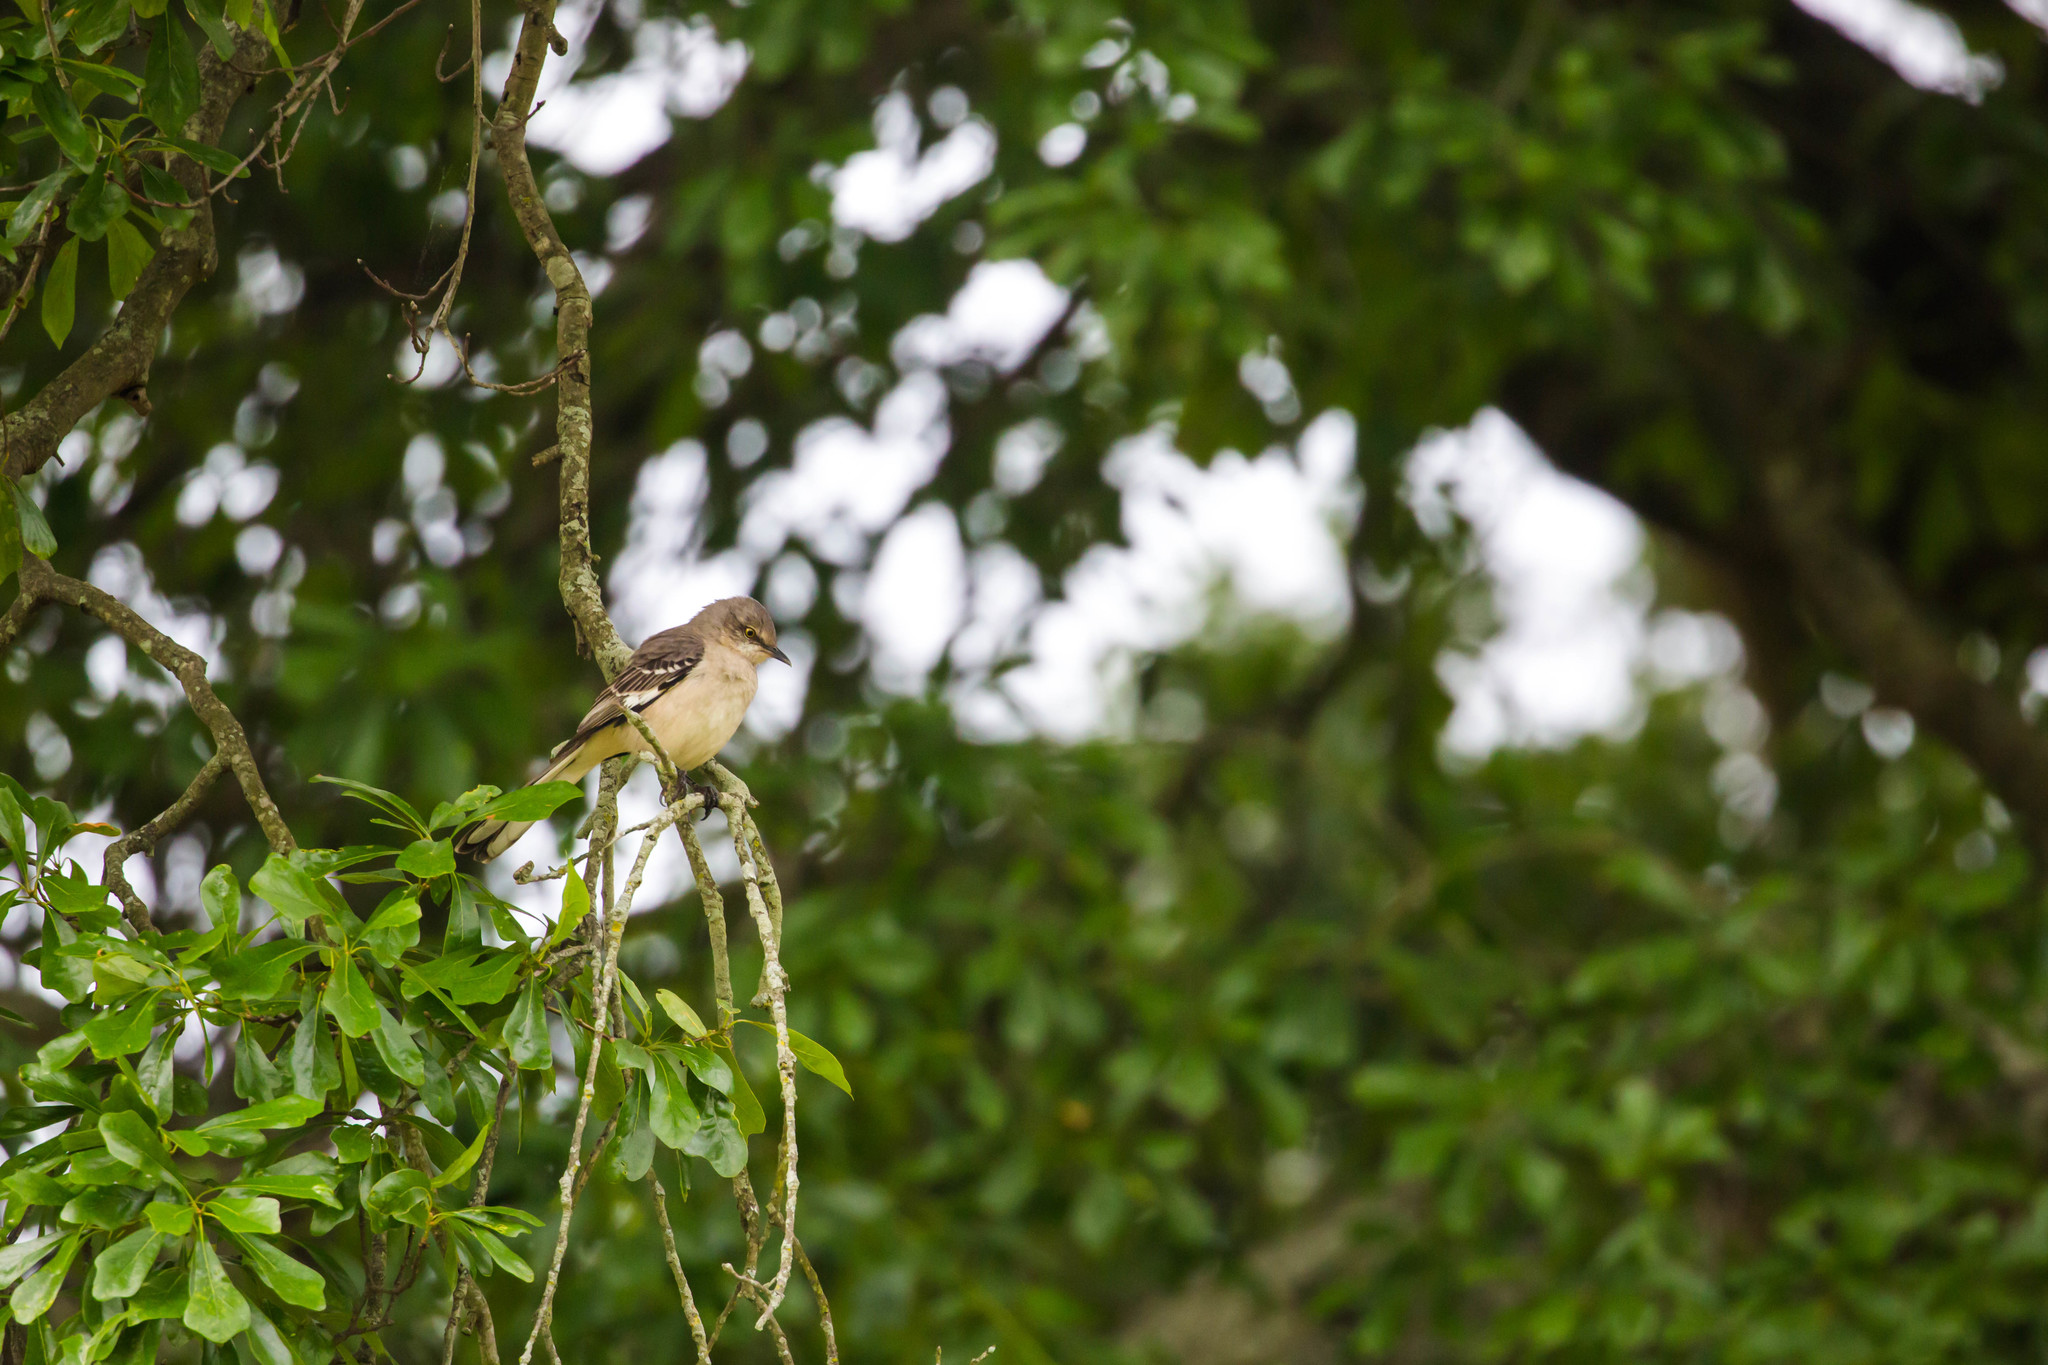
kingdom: Animalia
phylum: Chordata
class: Aves
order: Passeriformes
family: Mimidae
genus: Mimus
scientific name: Mimus polyglottos
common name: Northern mockingbird
